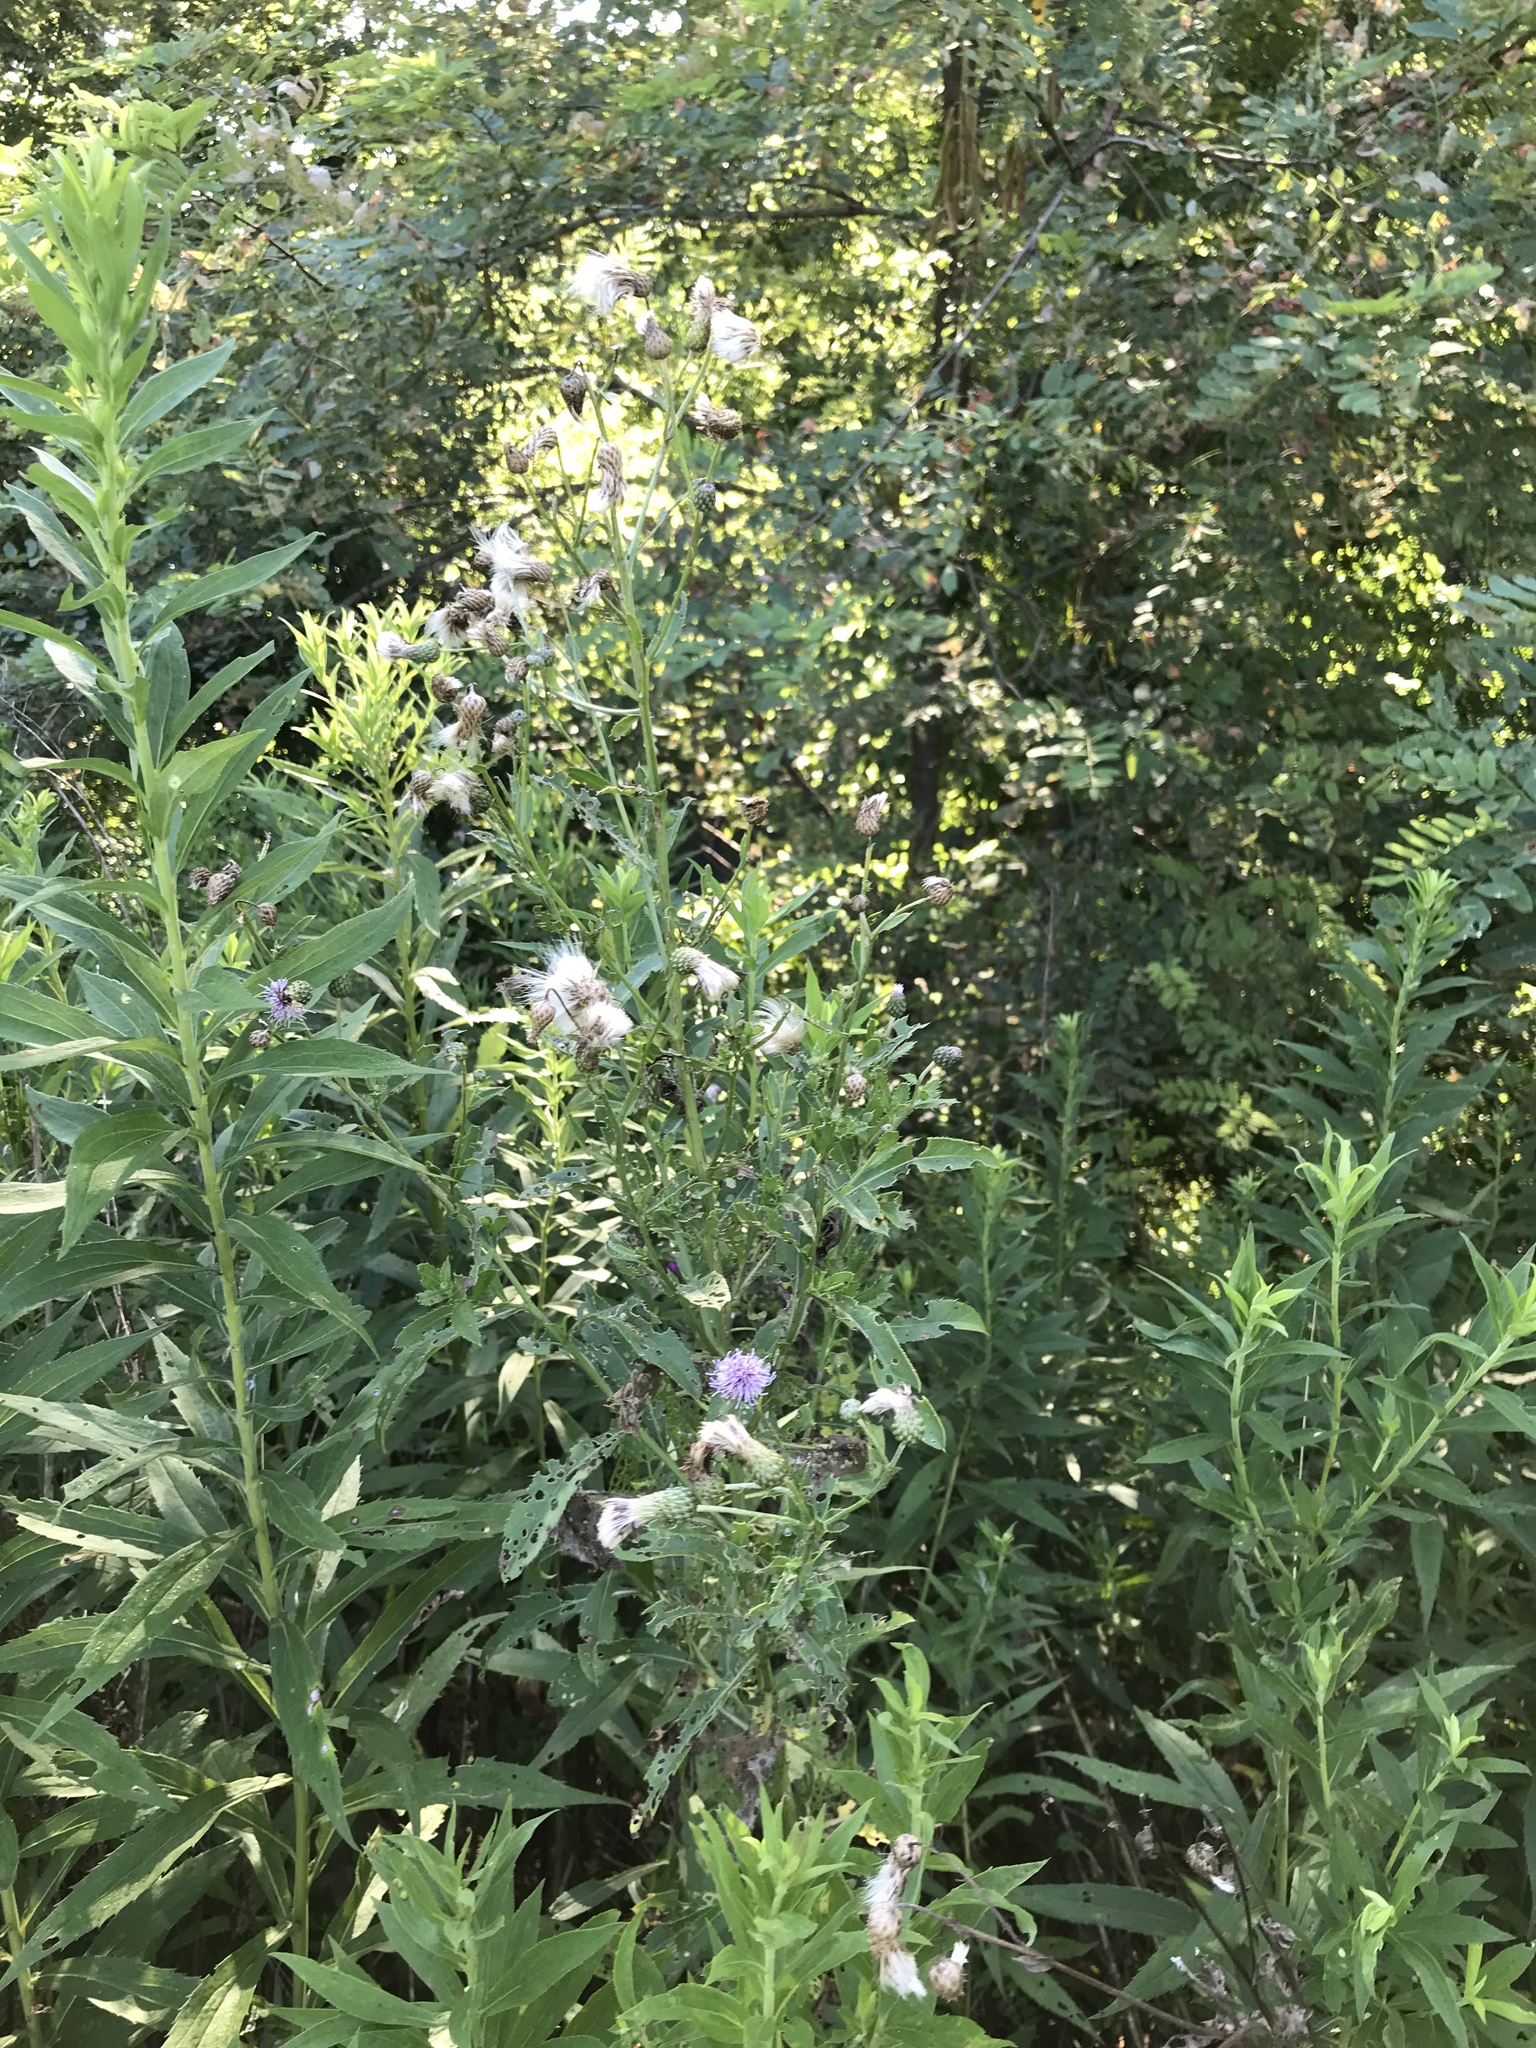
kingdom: Plantae
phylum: Tracheophyta
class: Magnoliopsida
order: Asterales
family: Asteraceae
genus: Cirsium
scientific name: Cirsium arvense
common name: Creeping thistle
